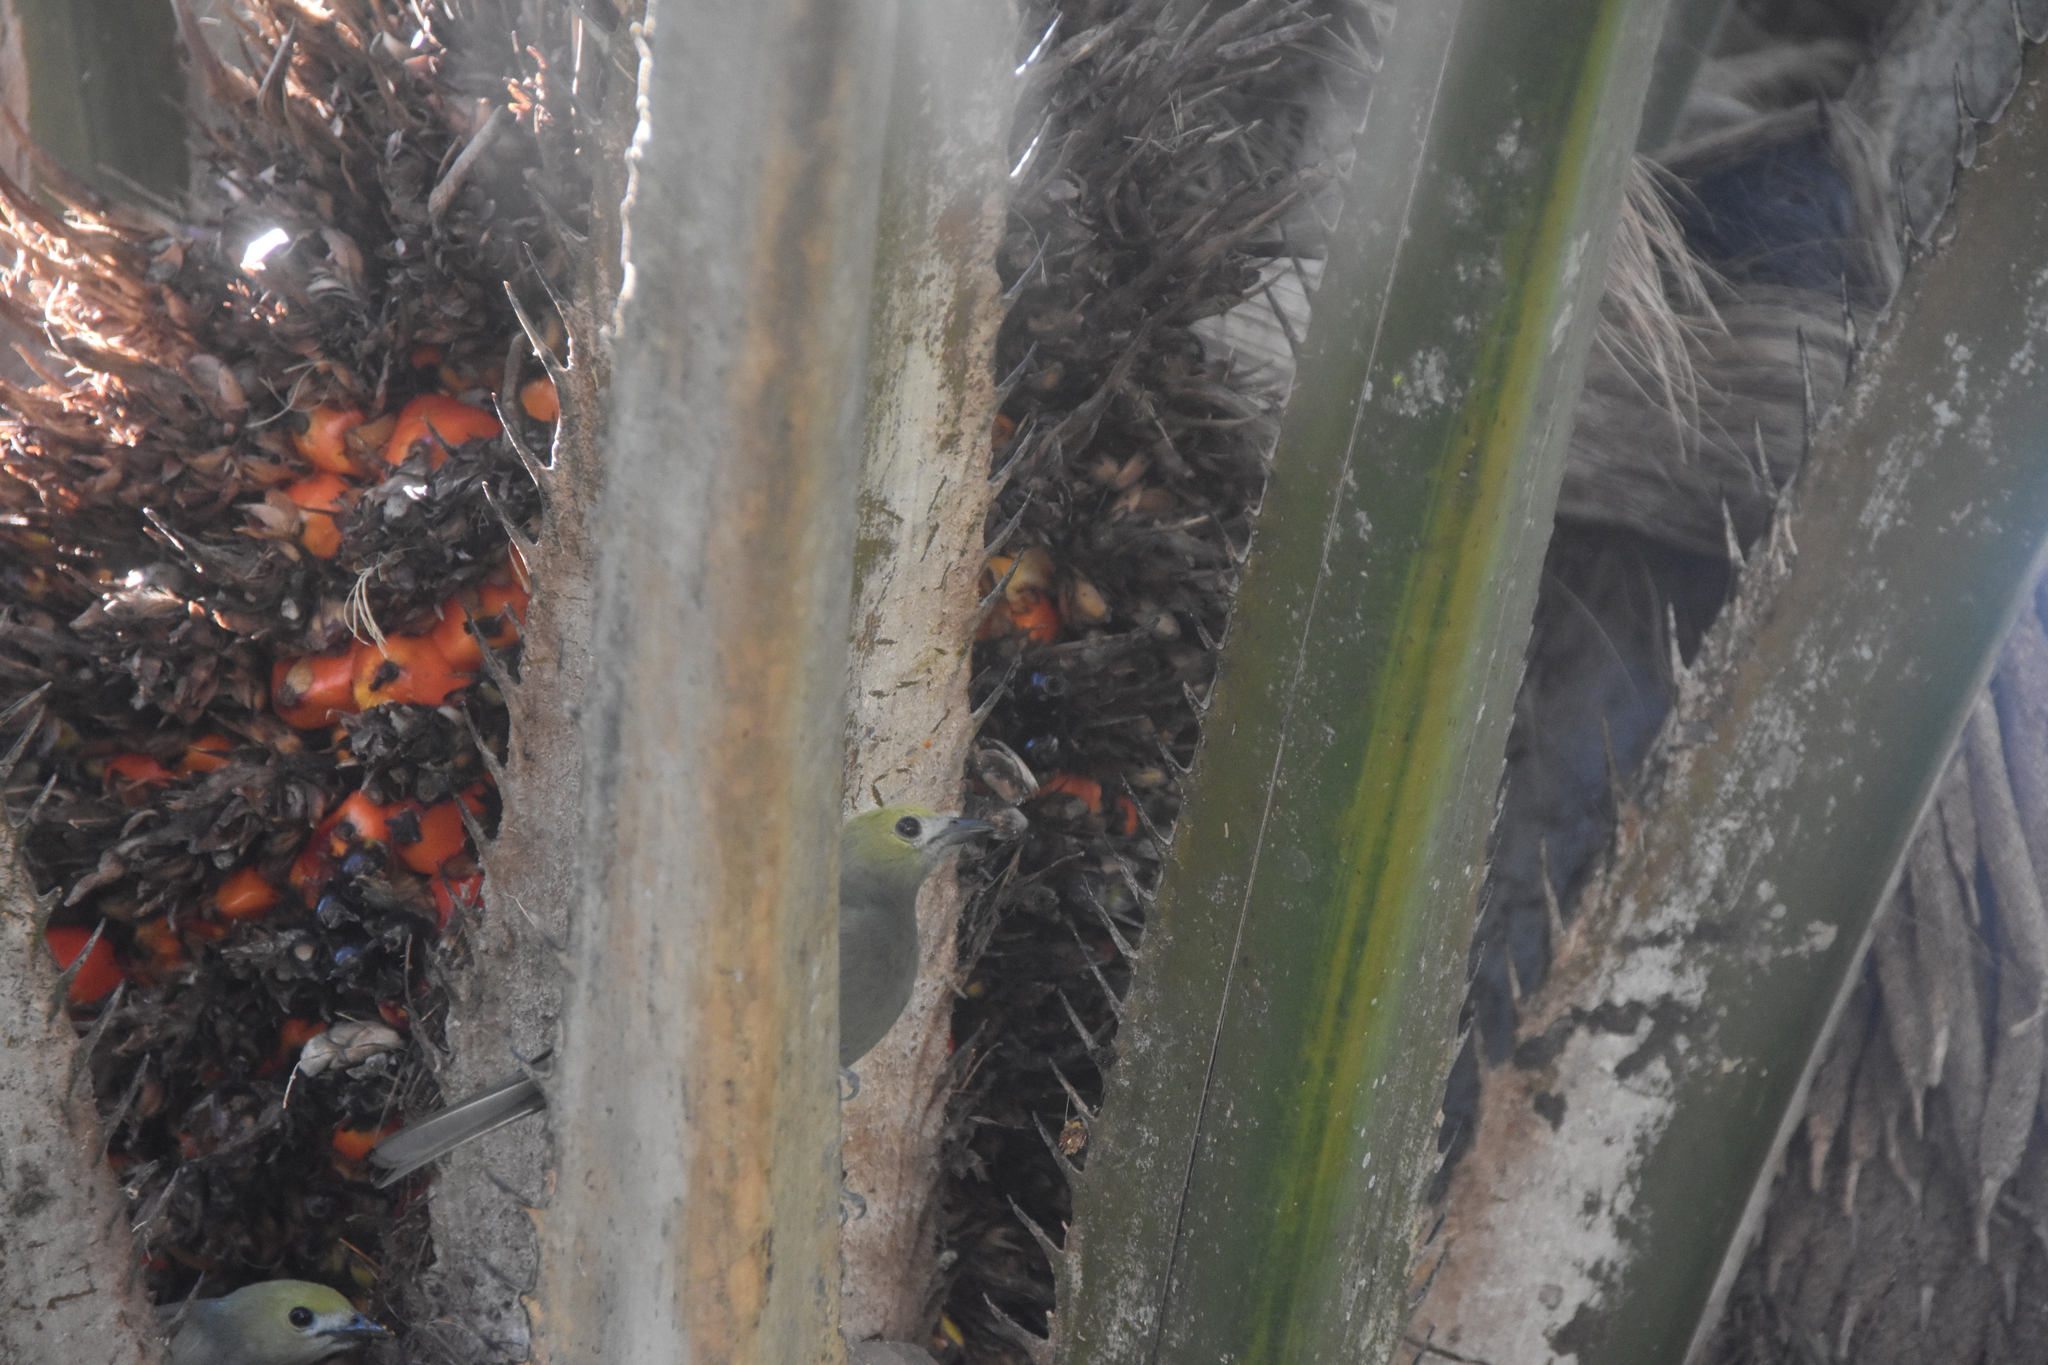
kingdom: Animalia
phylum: Chordata
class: Aves
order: Passeriformes
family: Thraupidae
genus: Thraupis
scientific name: Thraupis palmarum
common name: Palm tanager
